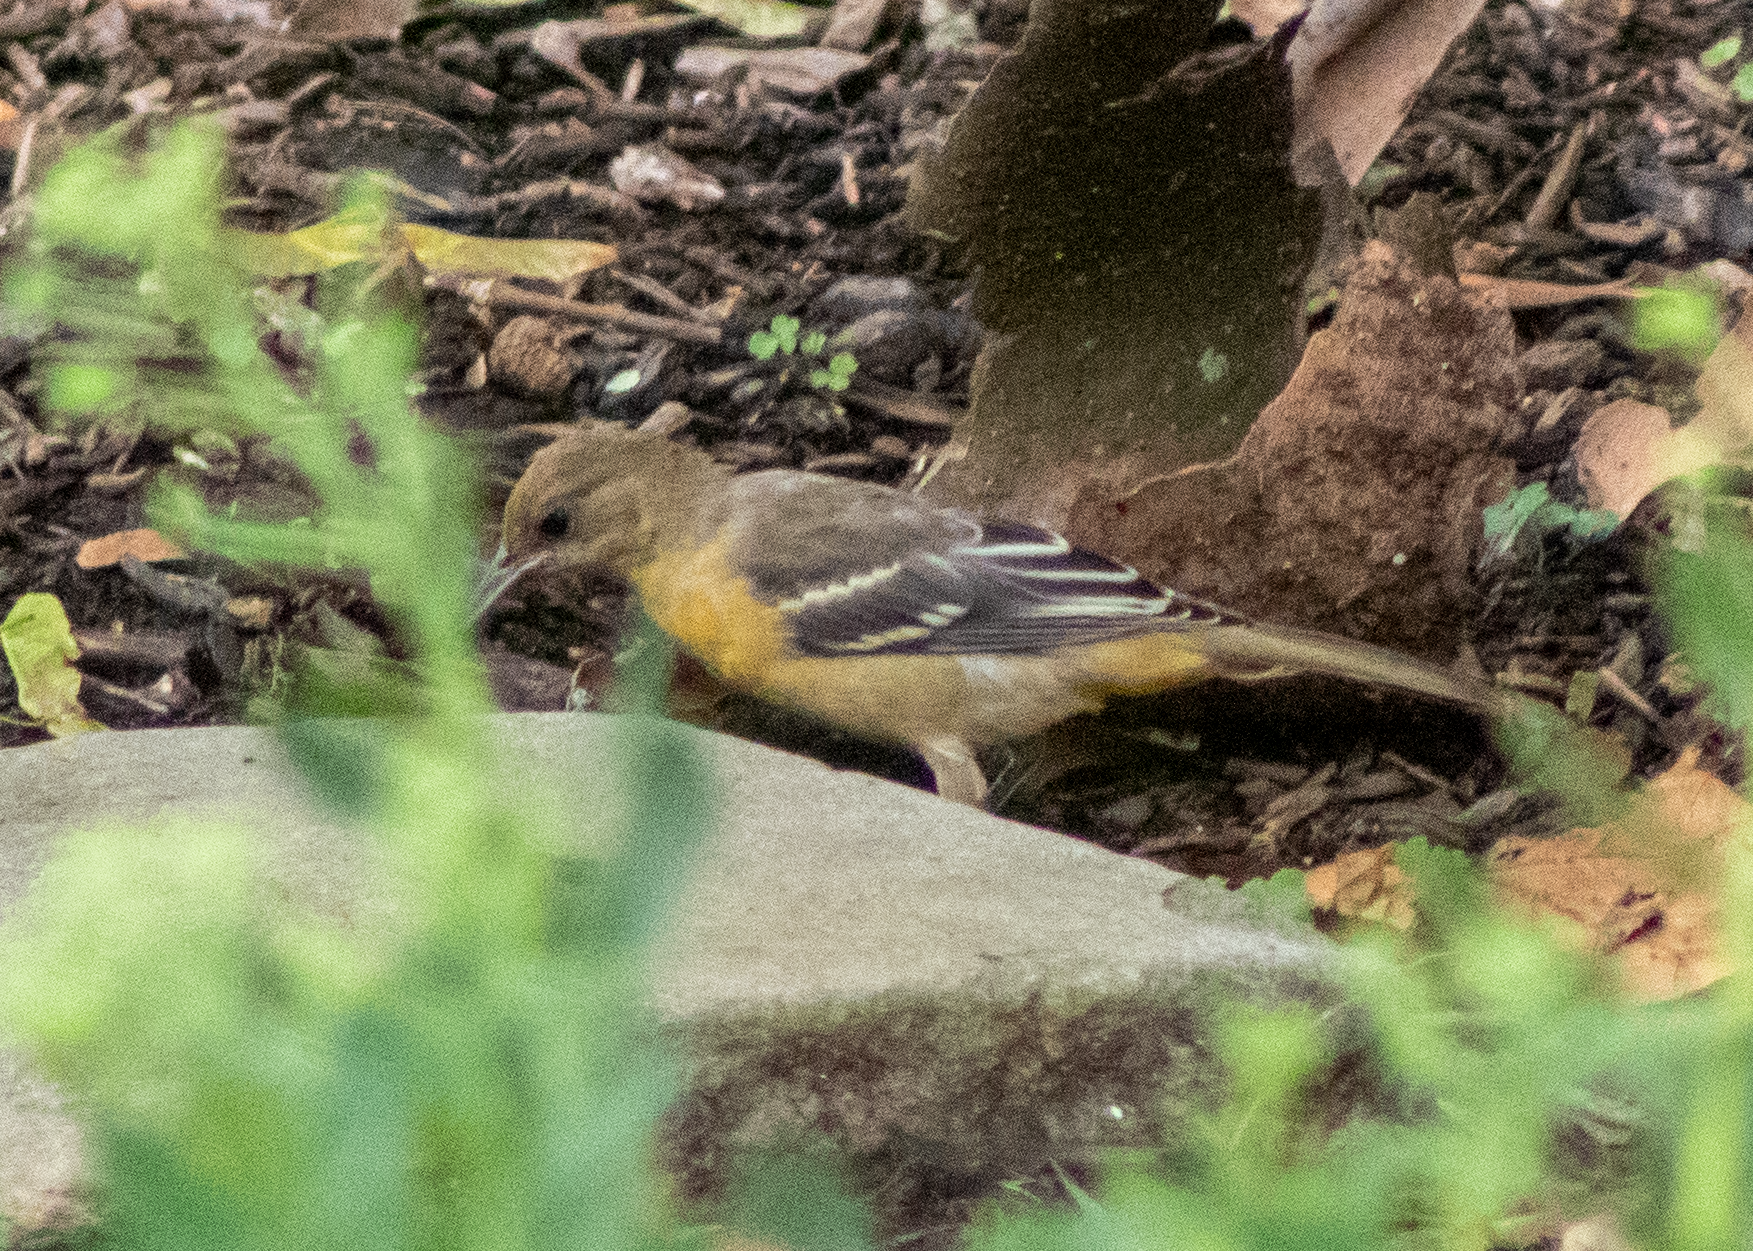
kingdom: Animalia
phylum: Chordata
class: Aves
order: Passeriformes
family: Icteridae
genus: Icterus
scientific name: Icterus galbula
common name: Baltimore oriole
